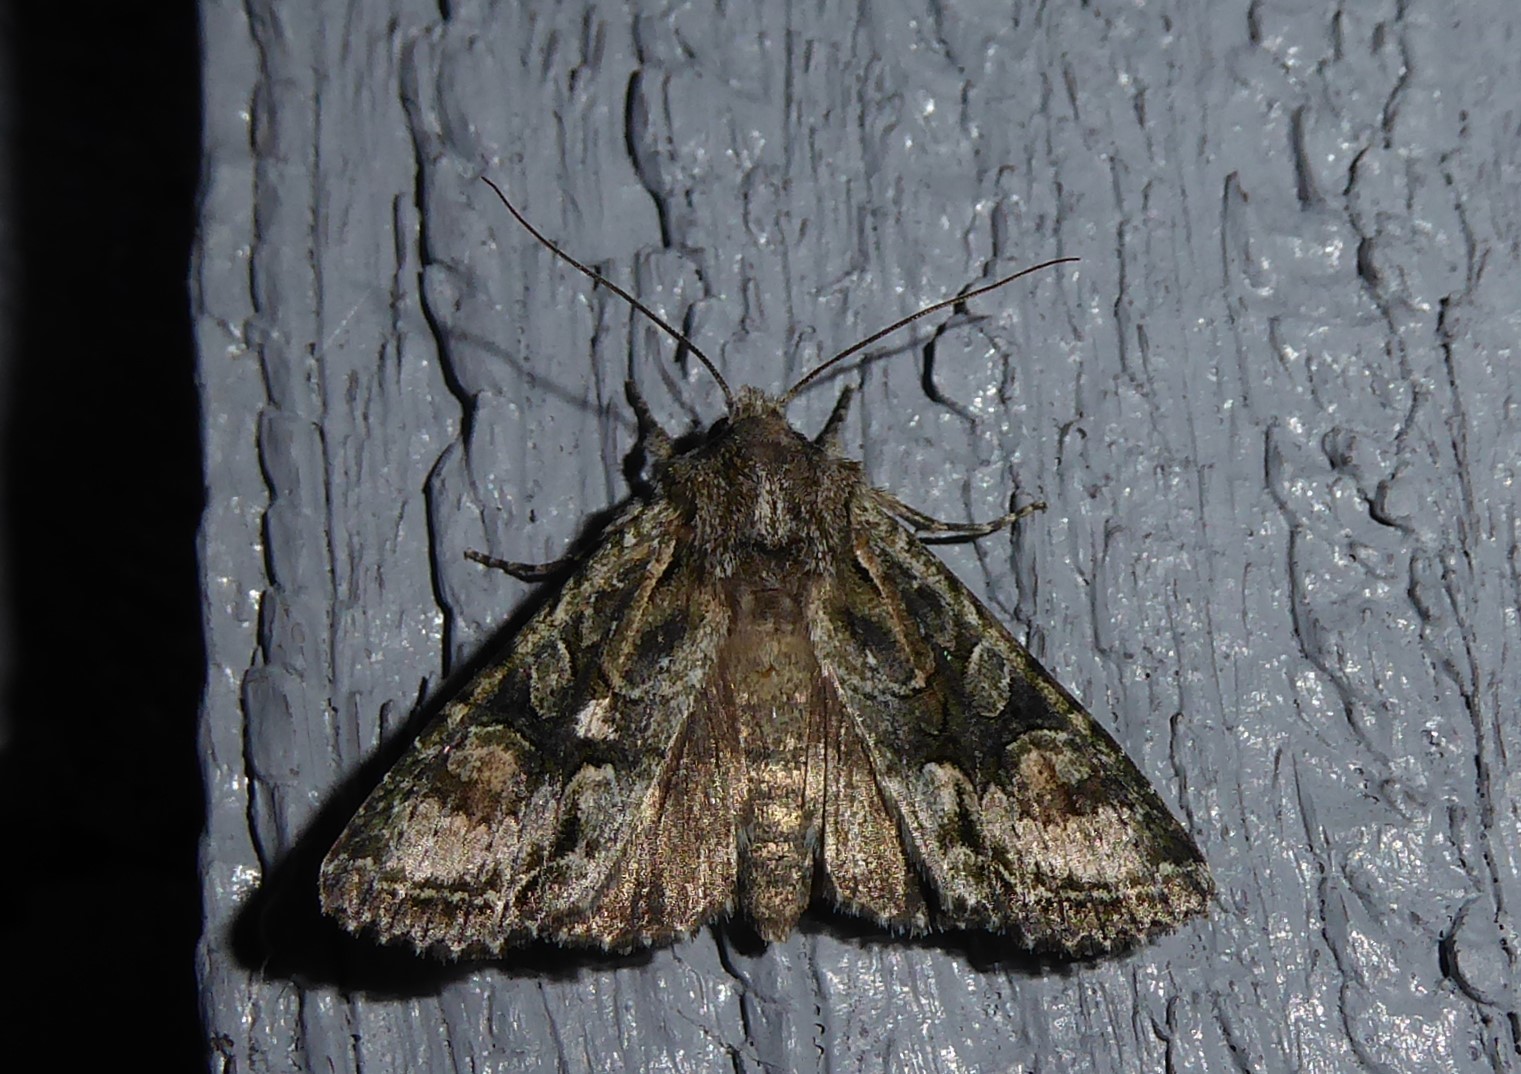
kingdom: Animalia
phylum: Arthropoda
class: Insecta
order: Lepidoptera
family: Noctuidae
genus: Ichneutica
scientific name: Ichneutica mutans
